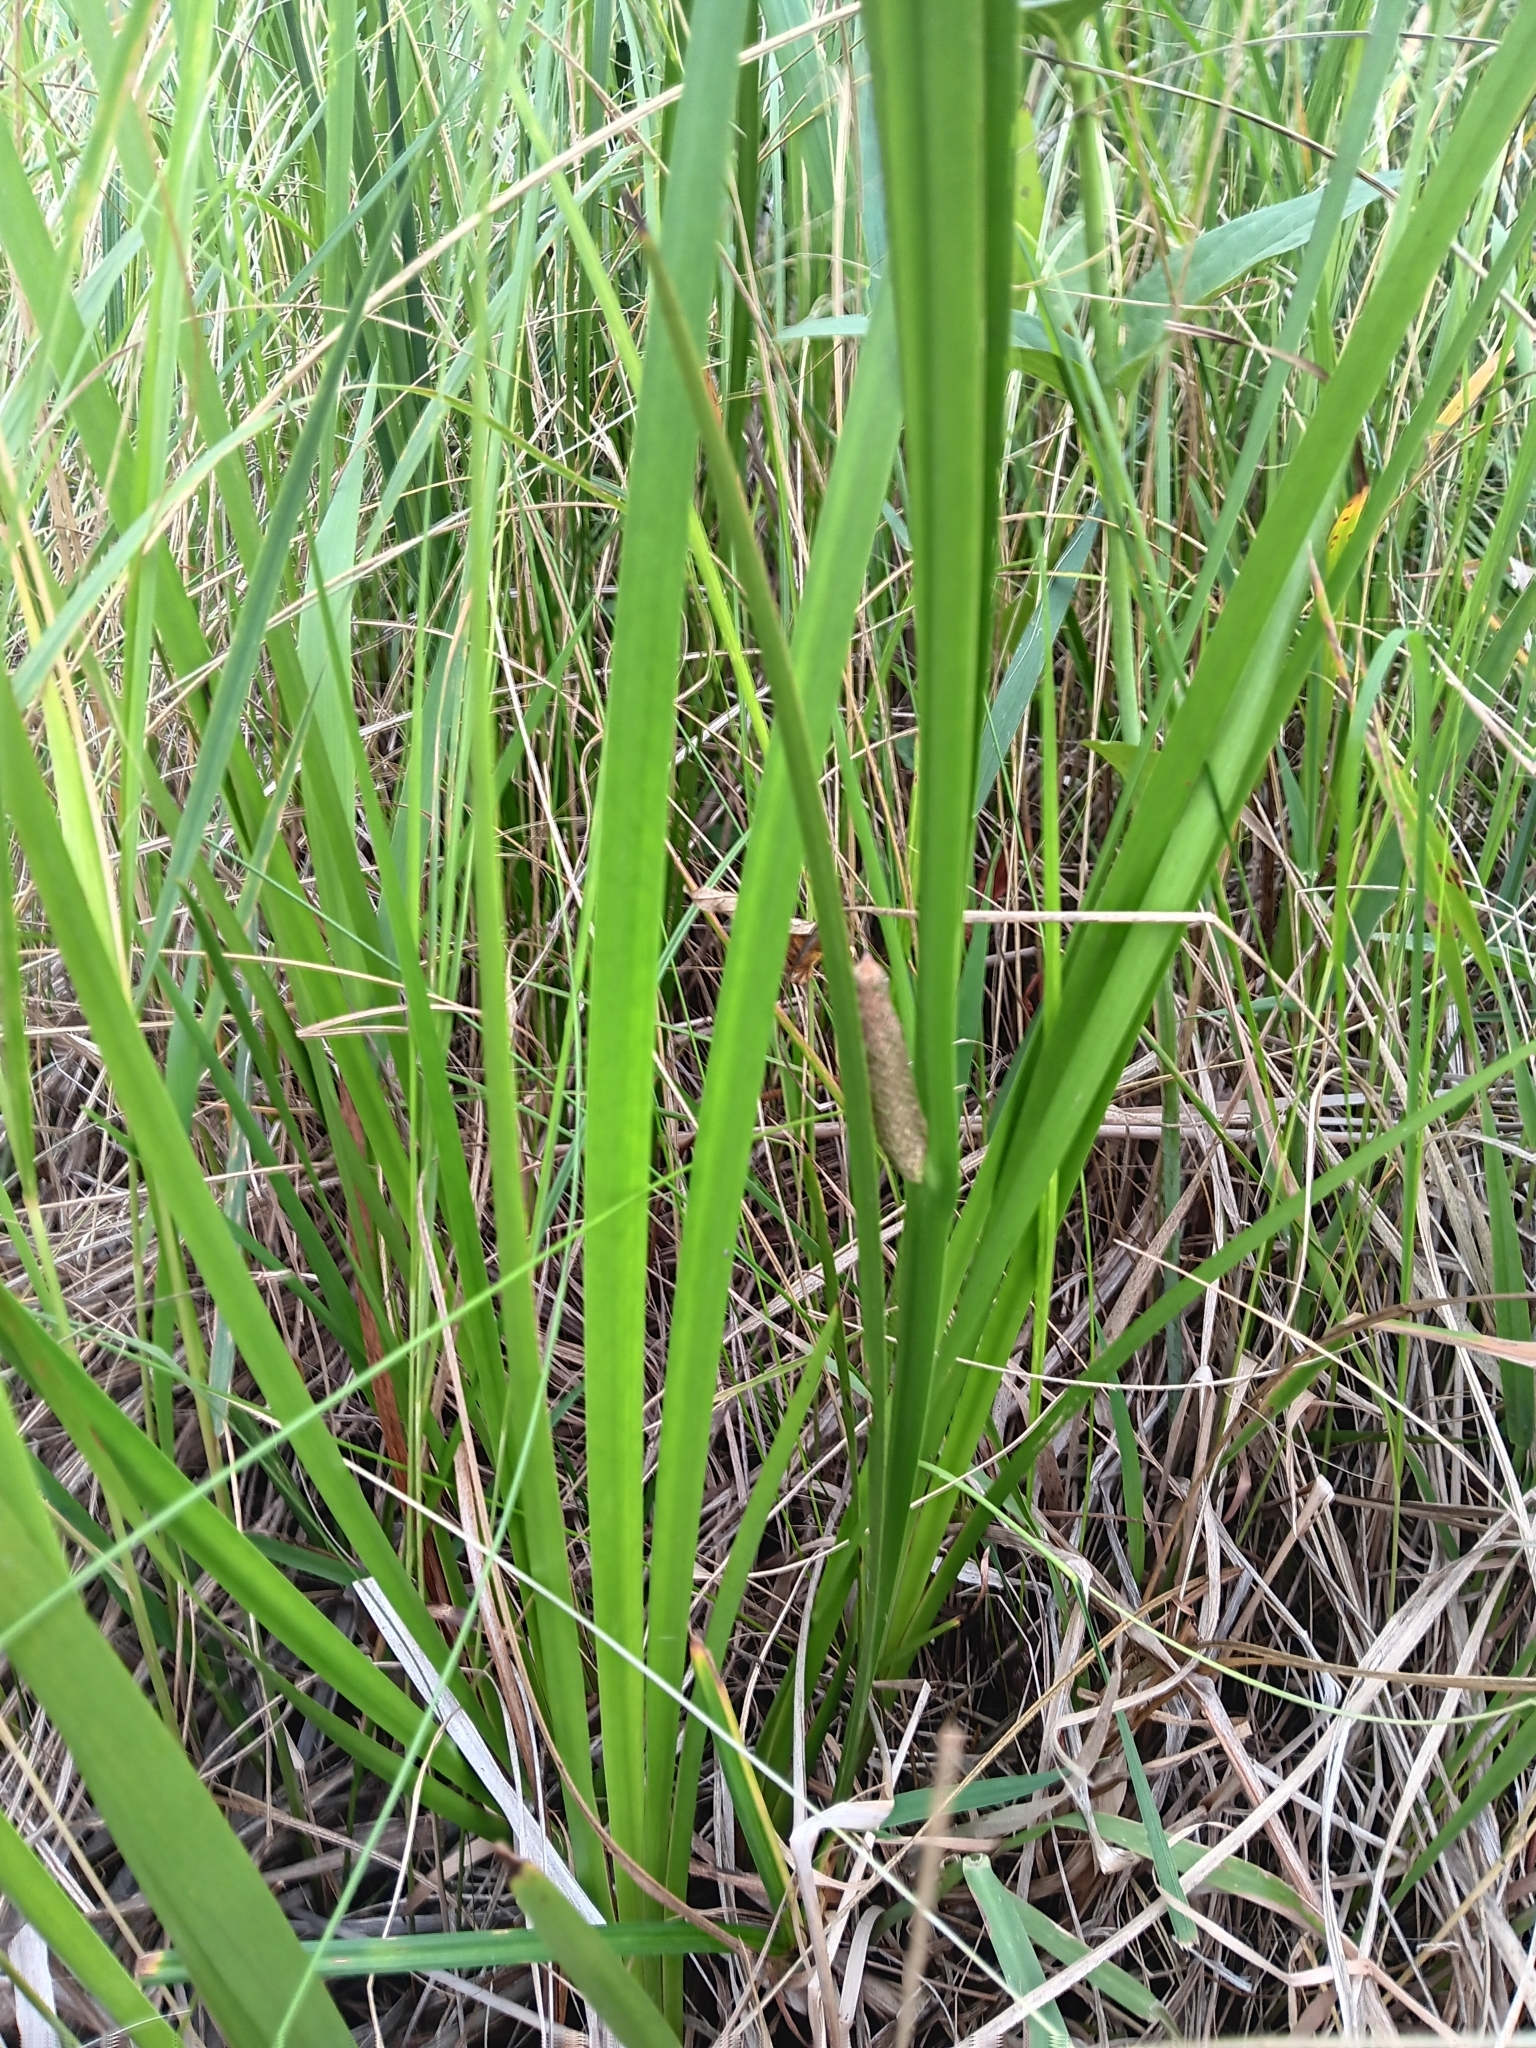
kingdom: Plantae
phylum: Tracheophyta
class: Liliopsida
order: Acorales
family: Acoraceae
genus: Acorus
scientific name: Acorus calamus
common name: Sweet-flag
